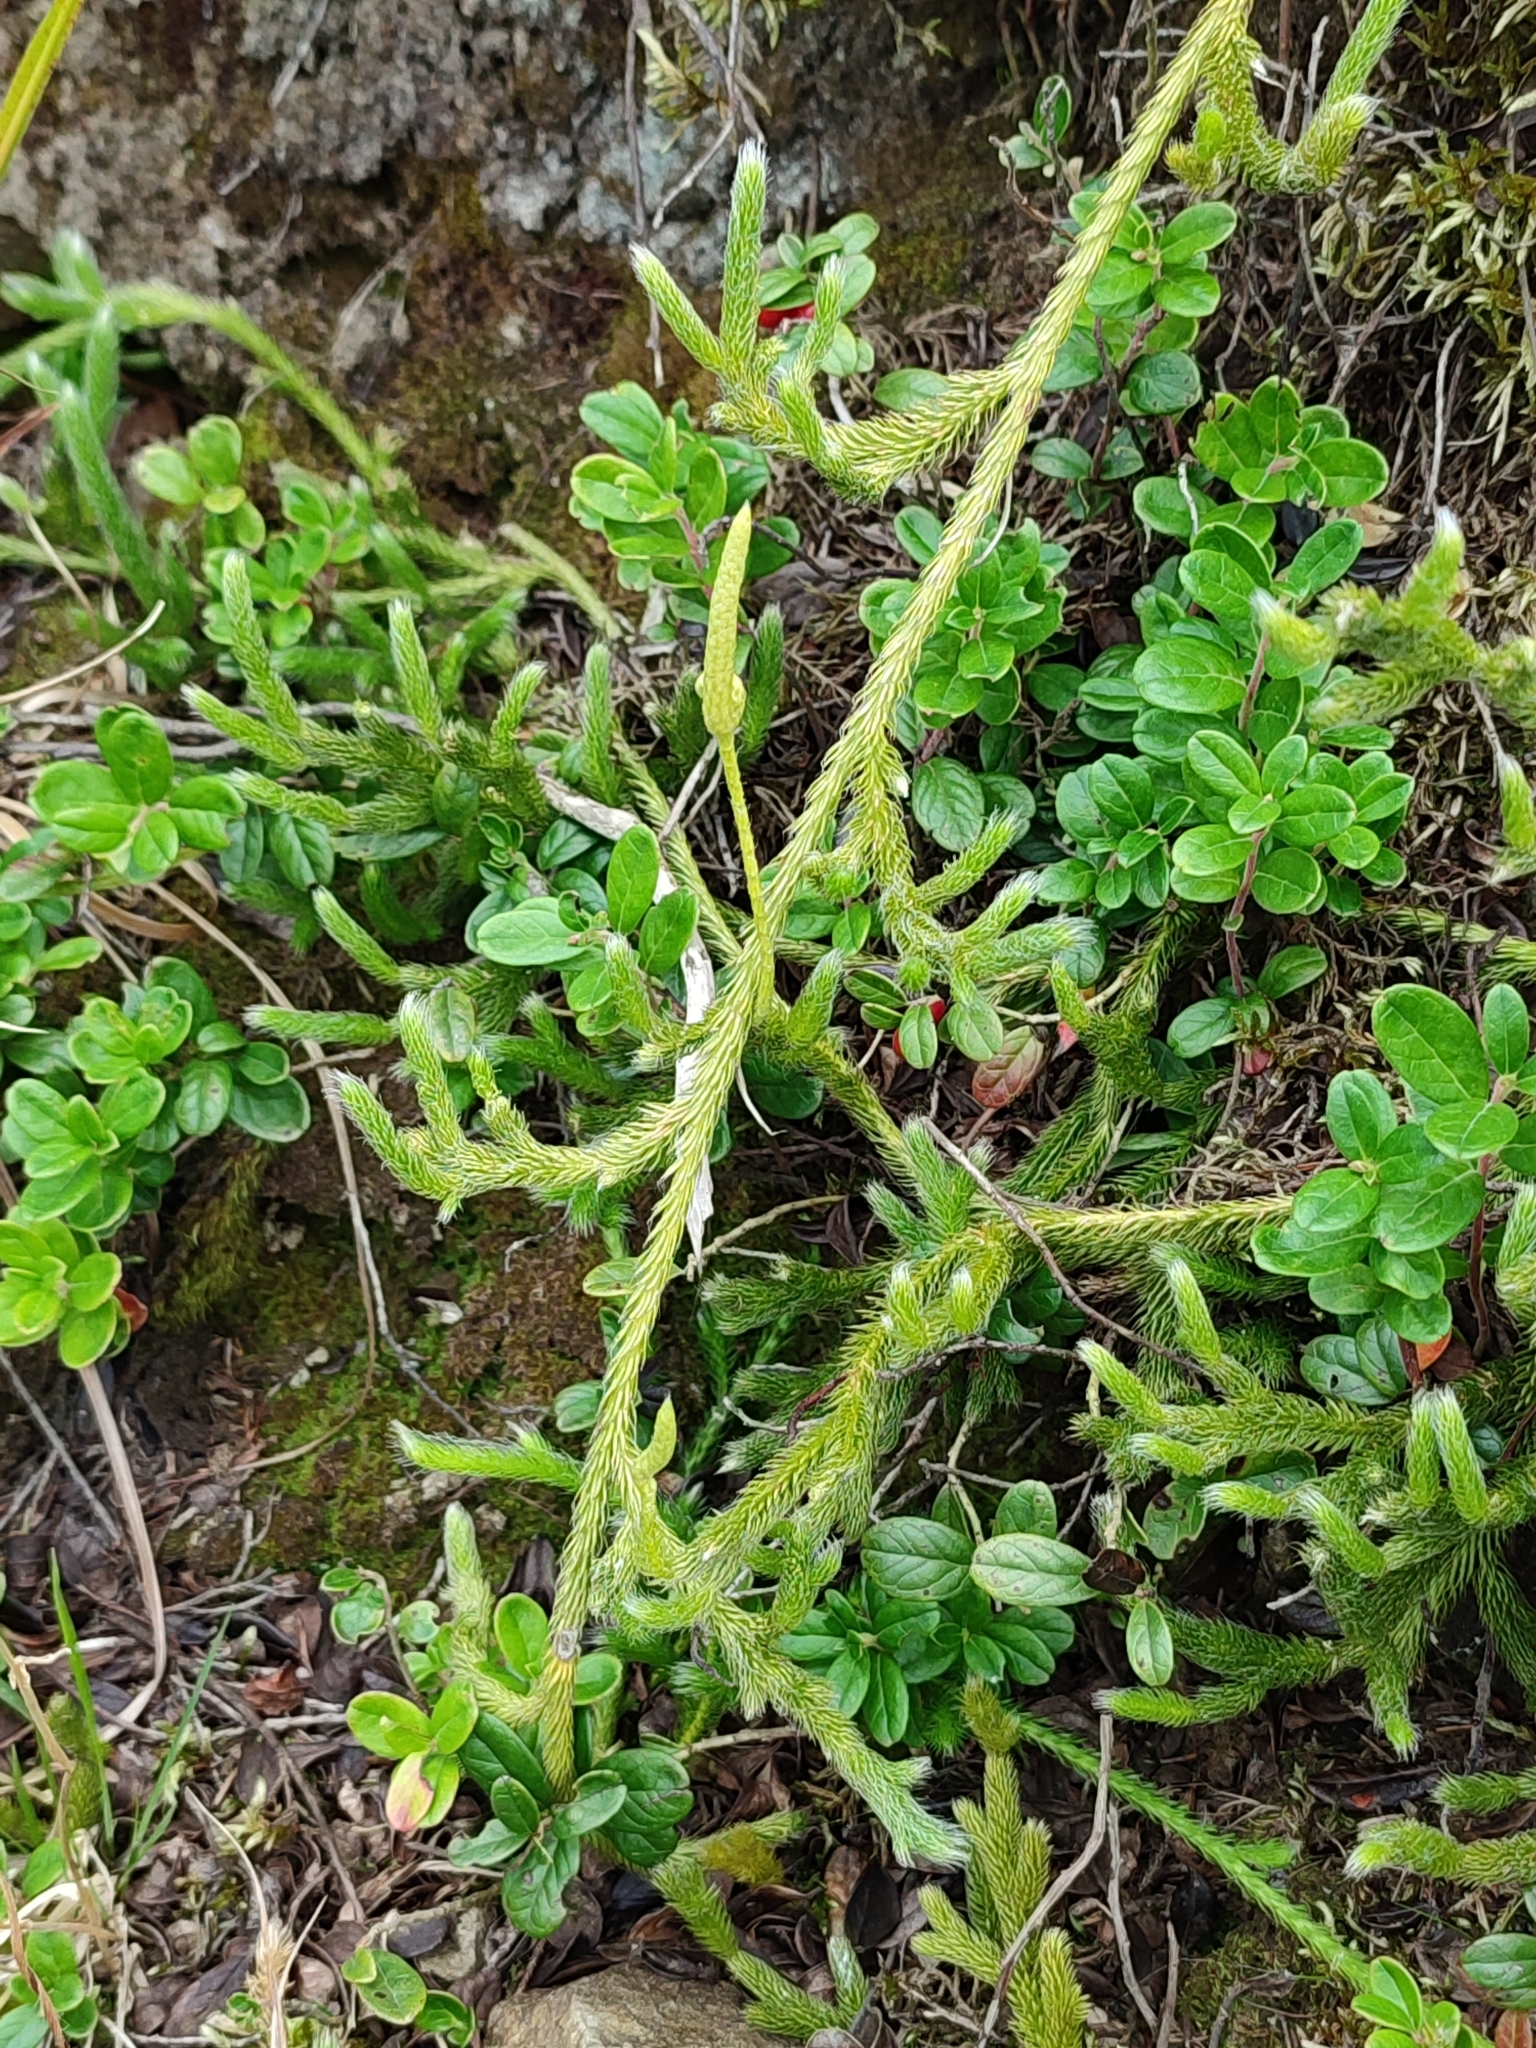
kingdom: Plantae
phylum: Tracheophyta
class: Lycopodiopsida
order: Lycopodiales
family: Lycopodiaceae
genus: Lycopodium
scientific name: Lycopodium clavatum
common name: Stag's-horn clubmoss
